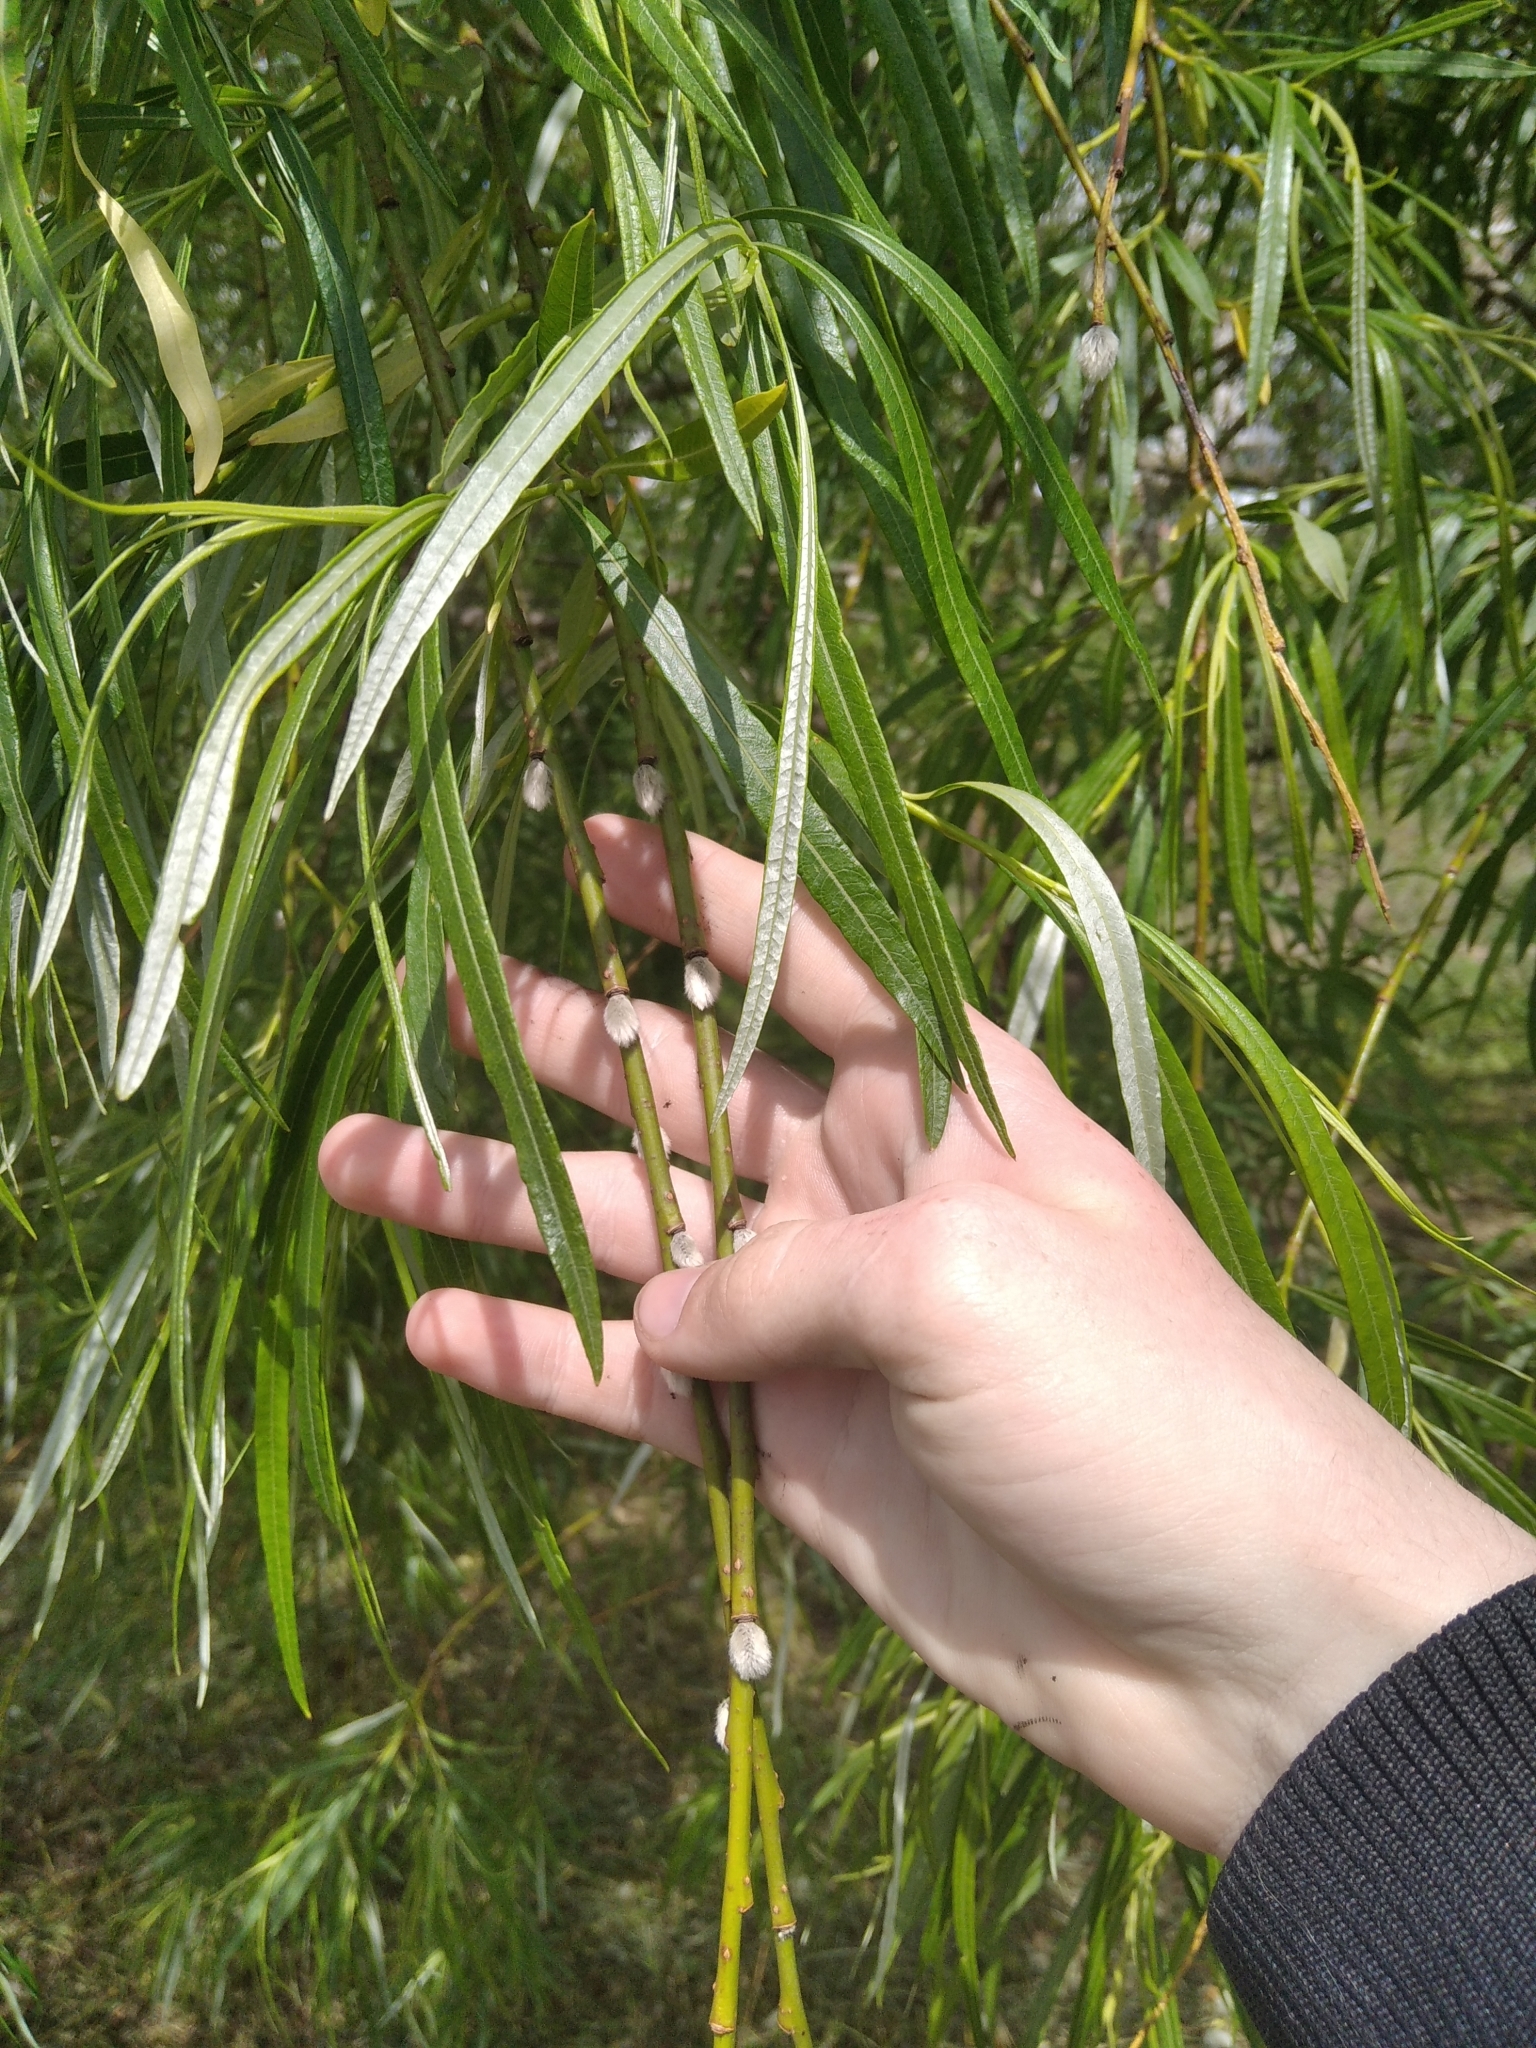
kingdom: Plantae
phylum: Tracheophyta
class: Magnoliopsida
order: Malpighiales
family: Salicaceae
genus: Salix
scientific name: Salix viminalis
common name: Osier
